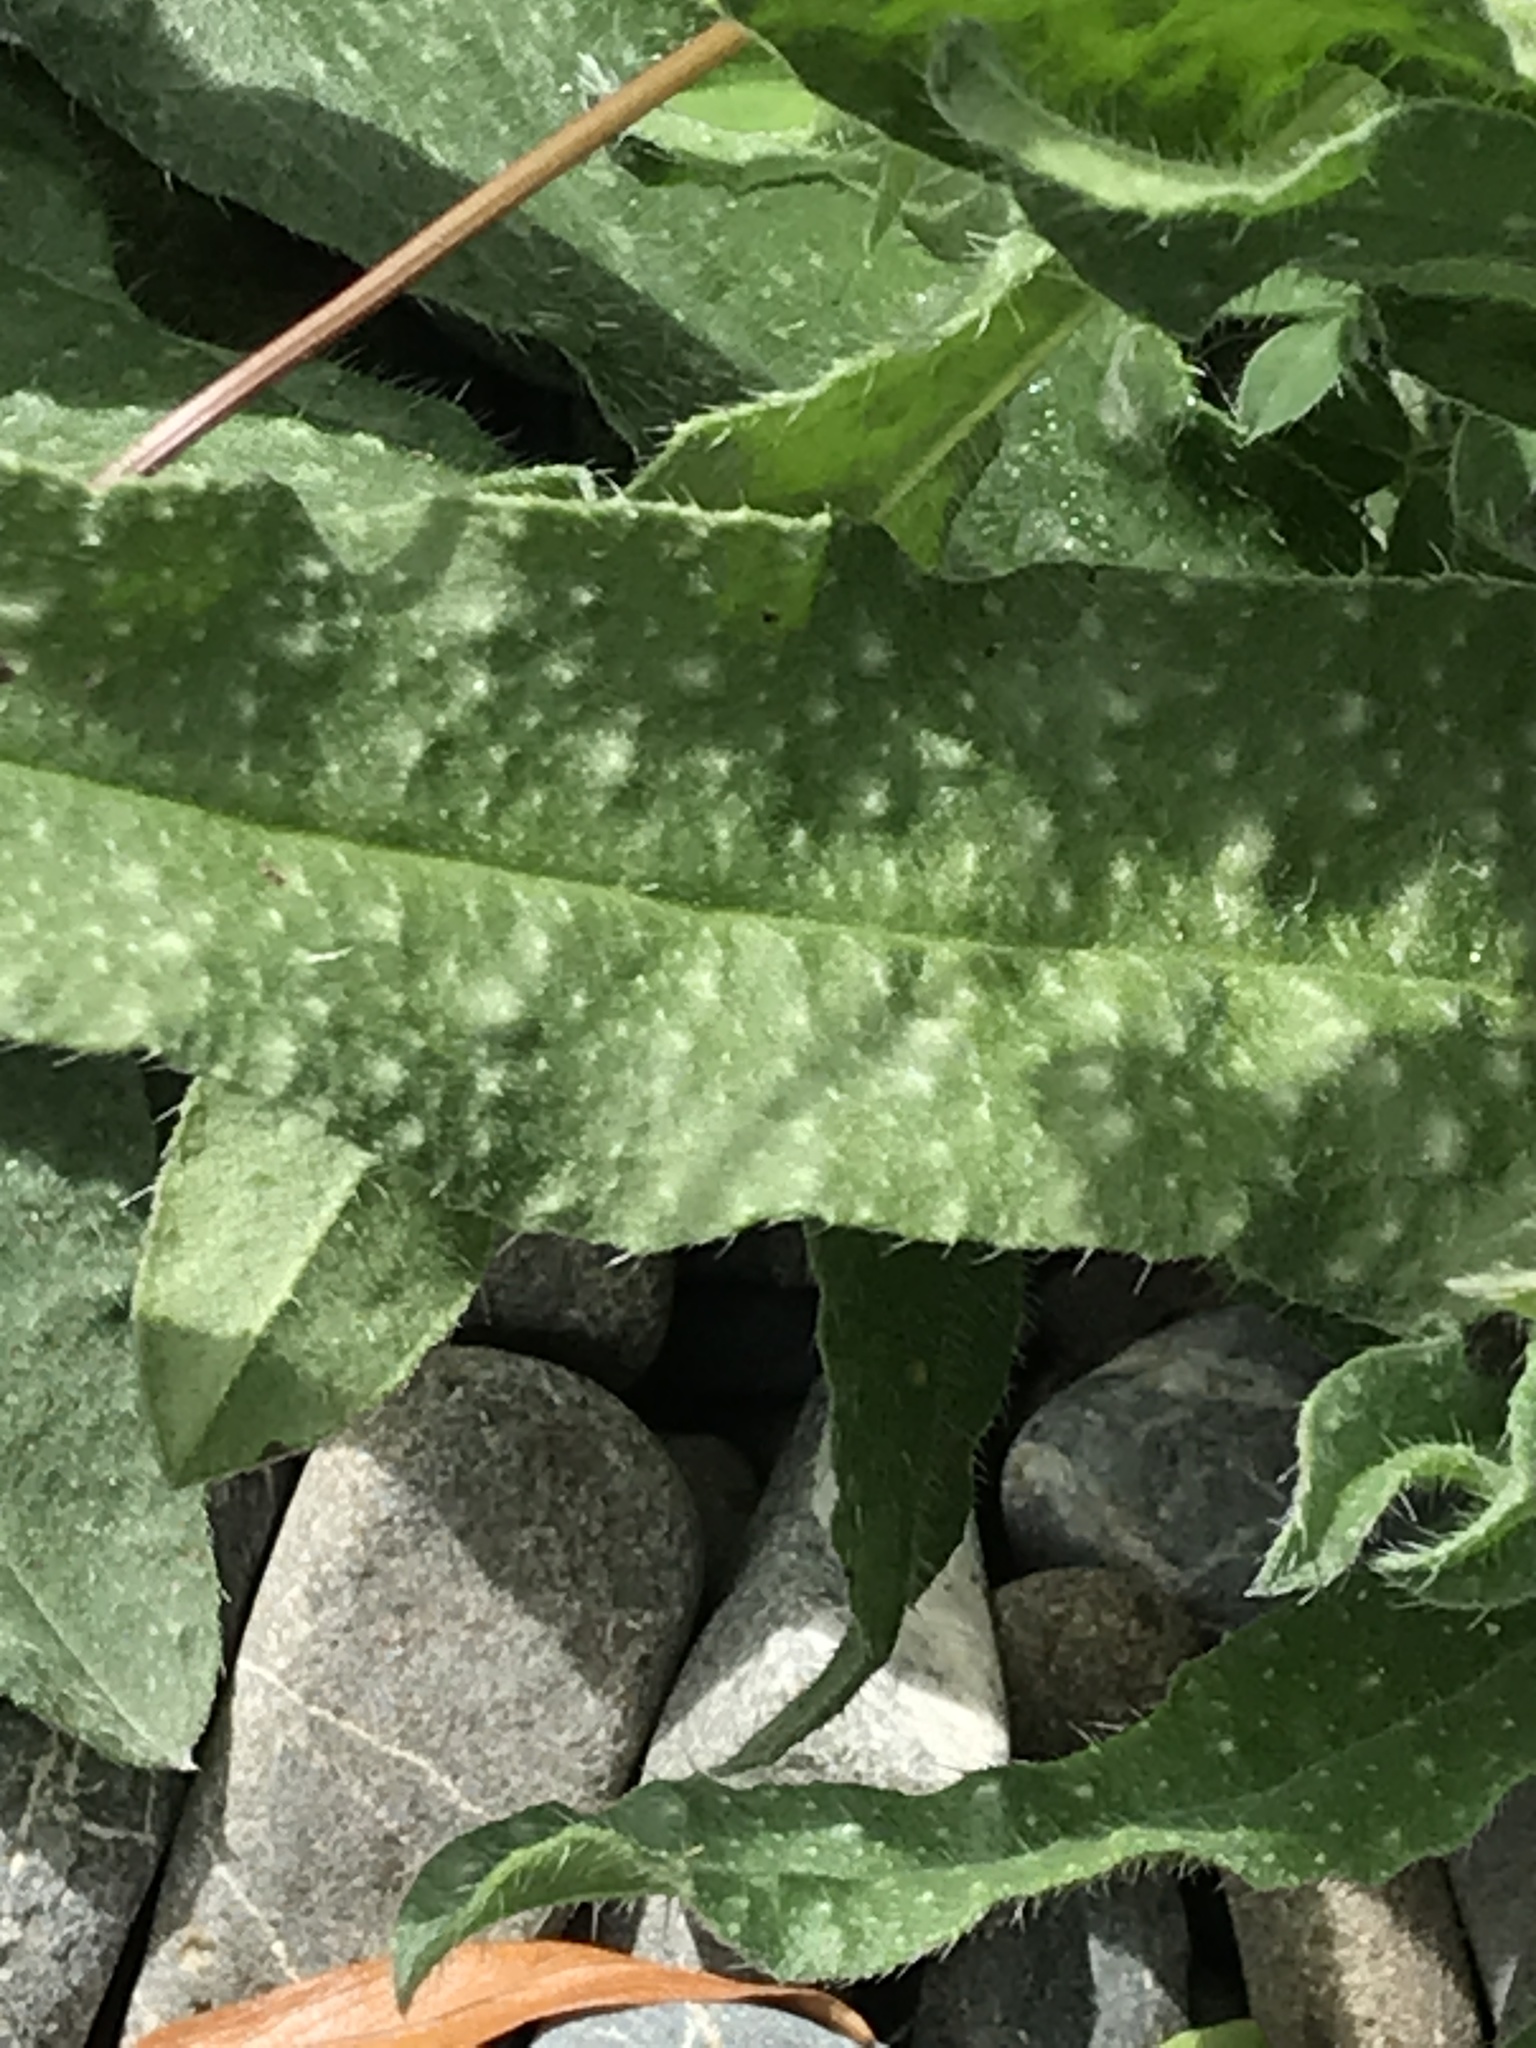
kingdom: Plantae
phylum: Tracheophyta
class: Magnoliopsida
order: Asterales
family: Asteraceae
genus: Helminthotheca
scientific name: Helminthotheca echioides
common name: Ox-tongue
